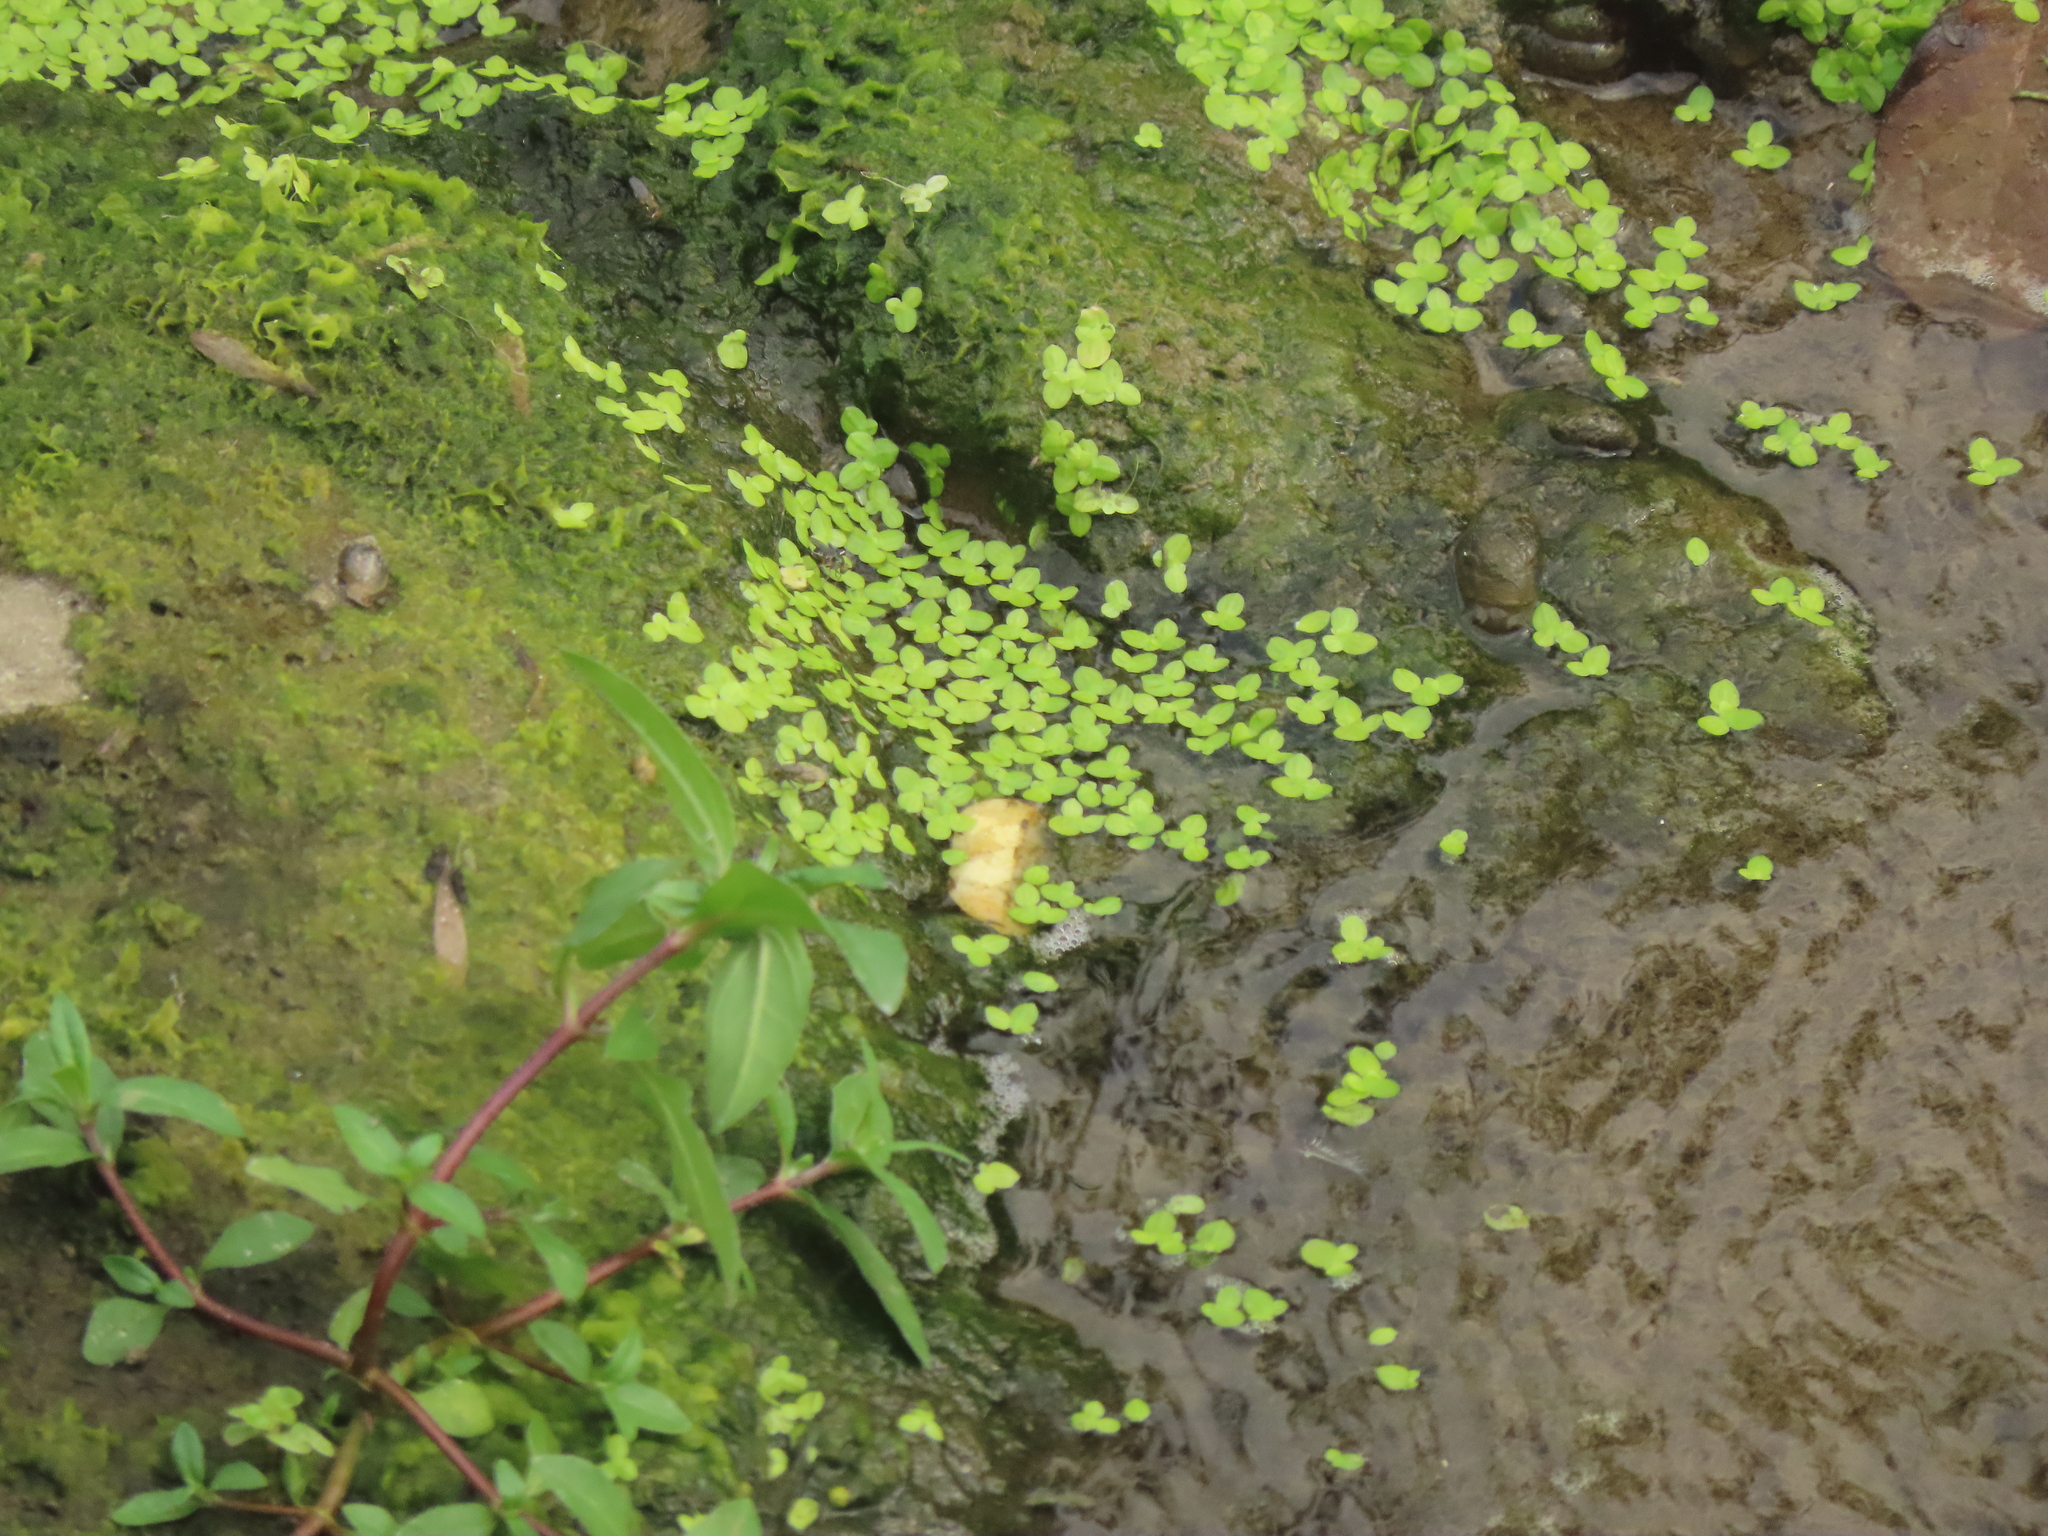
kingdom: Plantae
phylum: Tracheophyta
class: Liliopsida
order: Alismatales
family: Araceae
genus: Lemna
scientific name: Lemna aequinoctialis
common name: Duckweed
